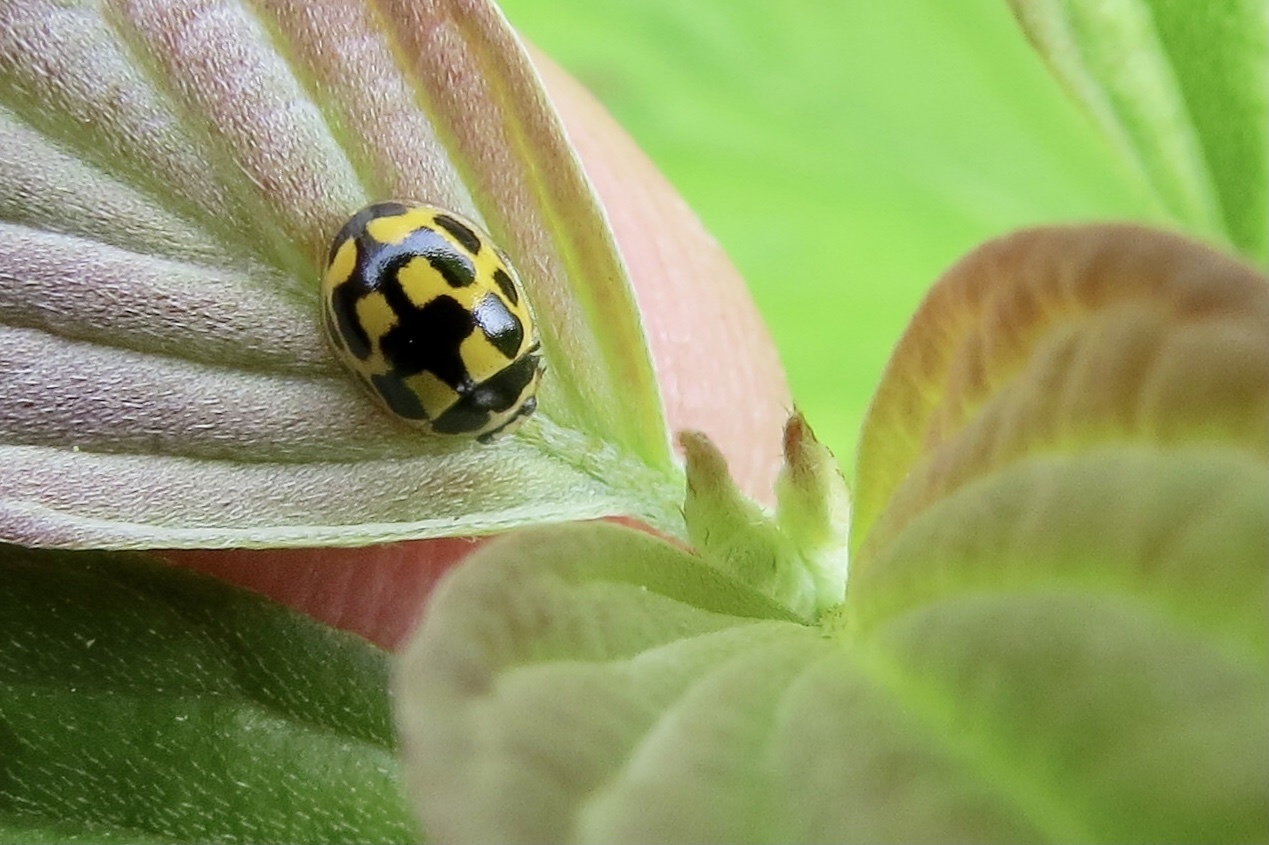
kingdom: Animalia
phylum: Arthropoda
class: Insecta
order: Coleoptera
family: Coccinellidae
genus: Propylaea
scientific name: Propylaea quatuordecimpunctata
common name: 14-spotted ladybird beetle
